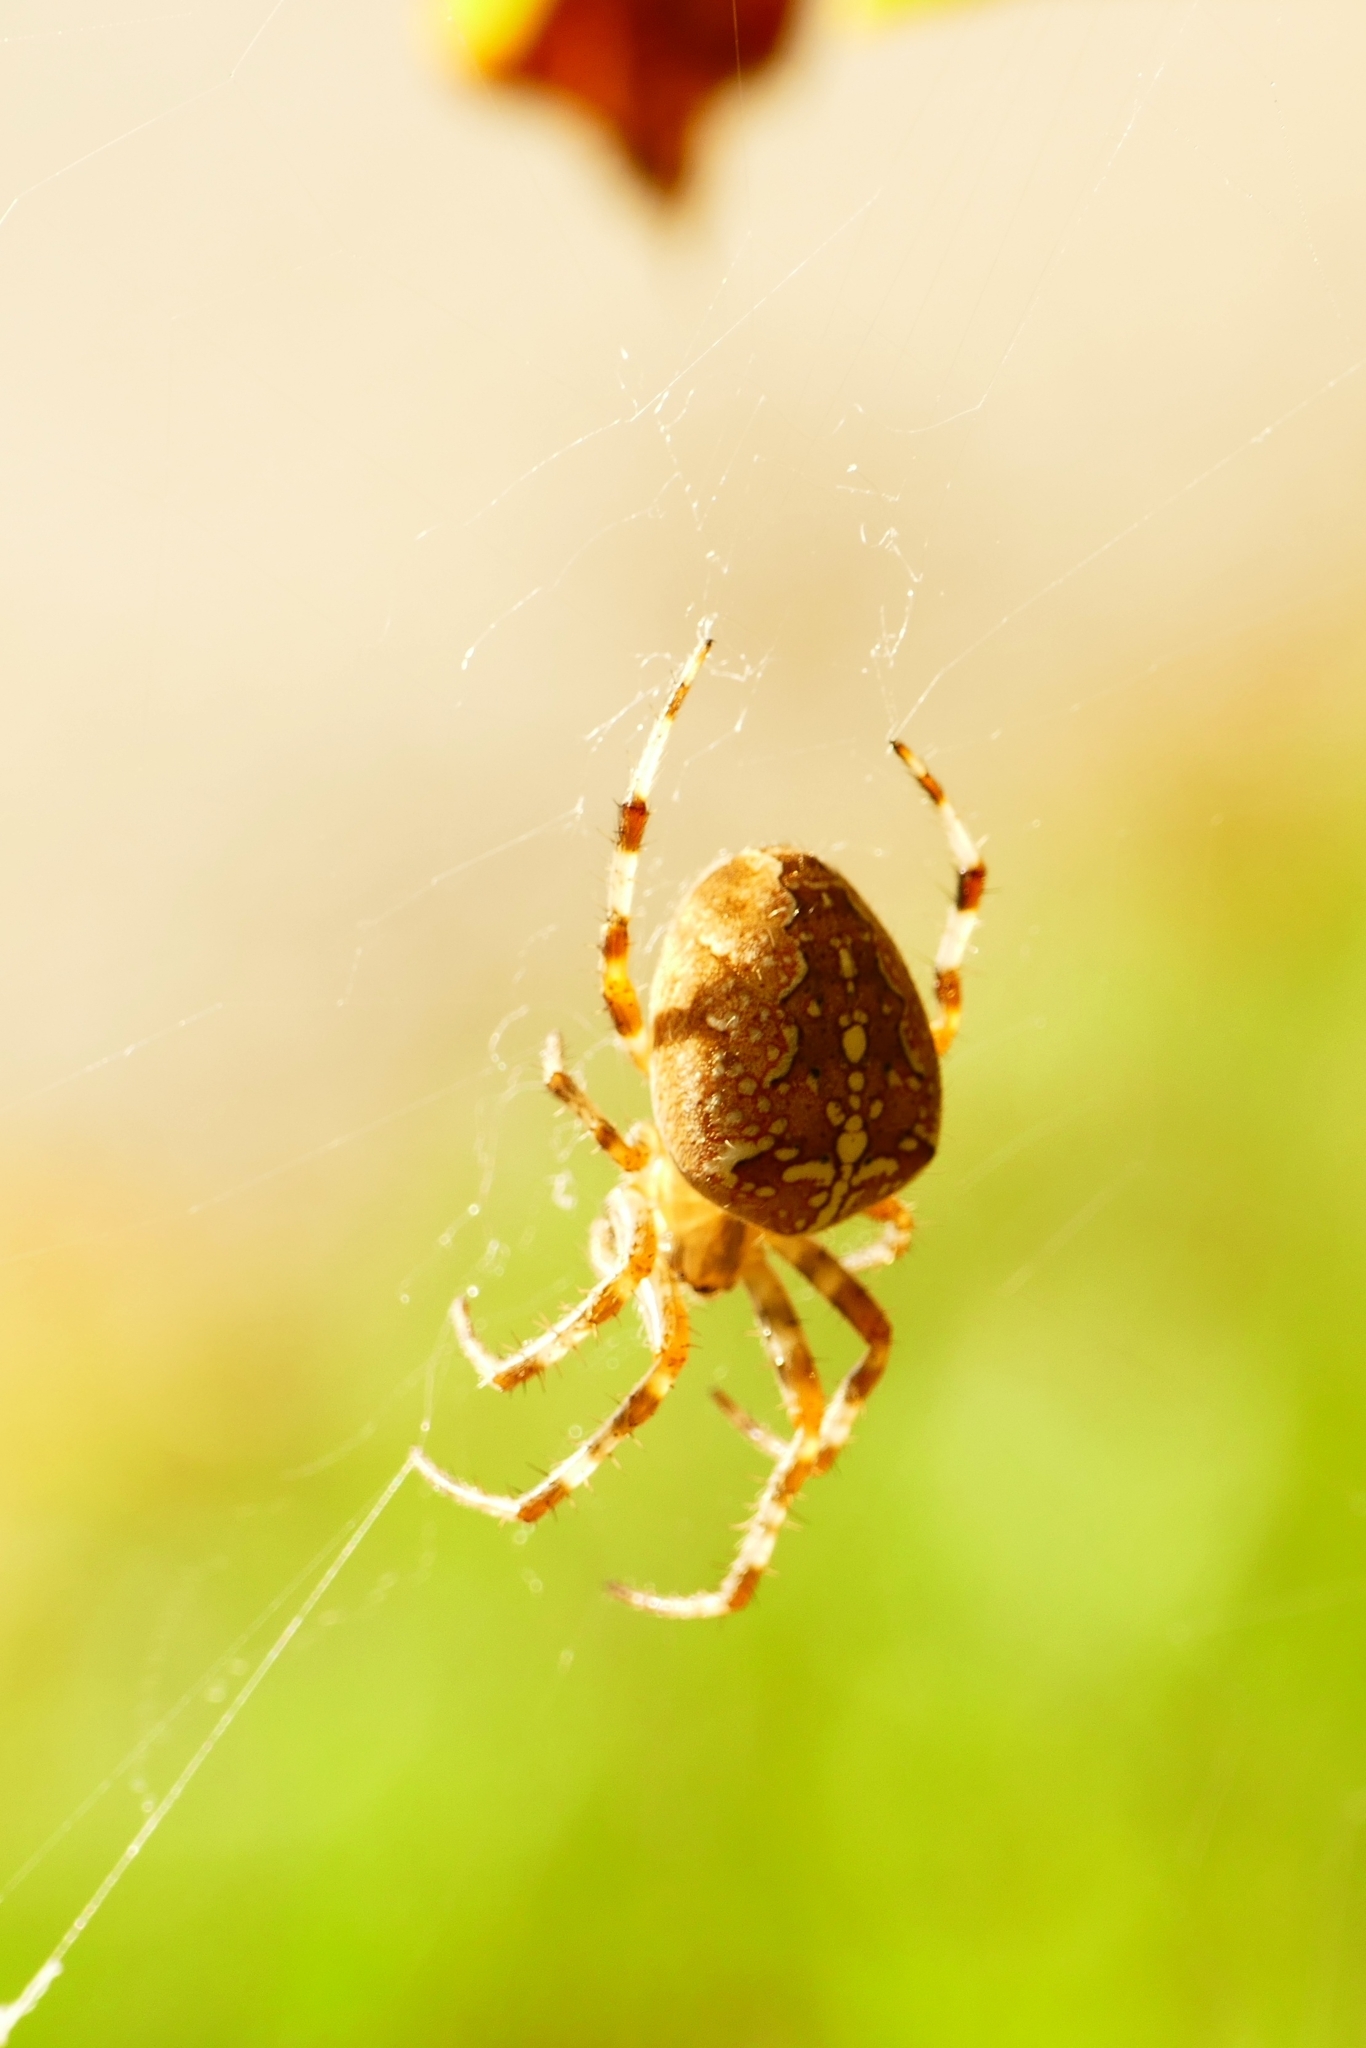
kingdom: Animalia
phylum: Arthropoda
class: Arachnida
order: Araneae
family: Araneidae
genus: Araneus
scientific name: Araneus diadematus
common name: Cross orbweaver
